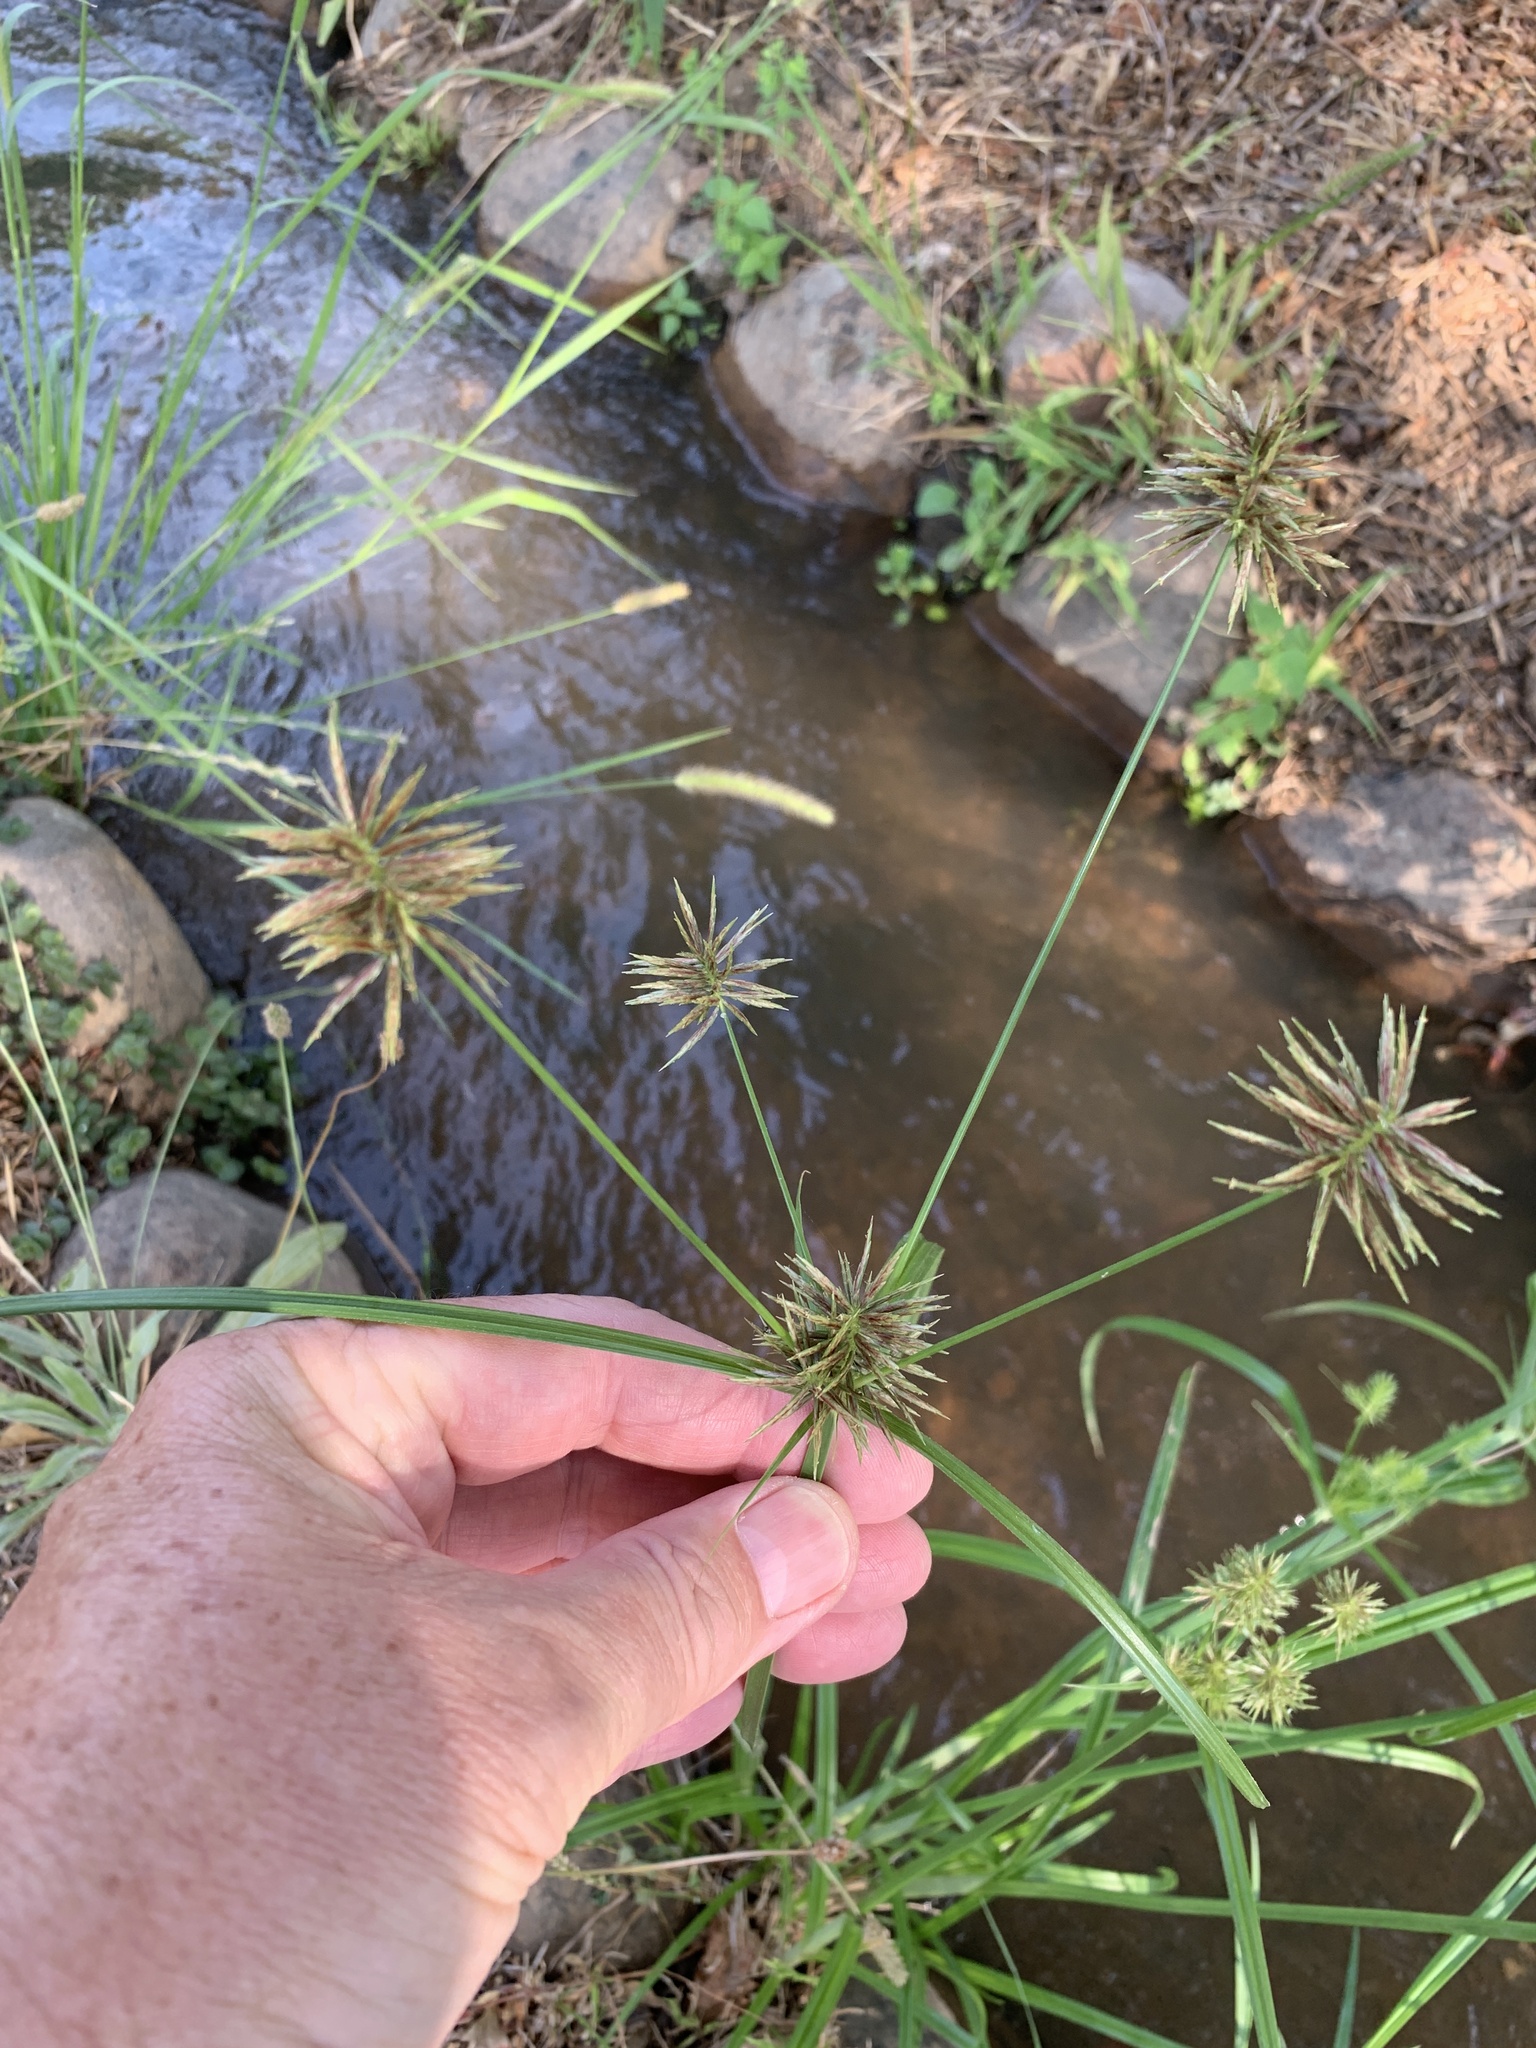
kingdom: Plantae
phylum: Tracheophyta
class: Liliopsida
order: Poales
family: Cyperaceae
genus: Cyperus
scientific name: Cyperus congestus
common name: Dense flat sedge
